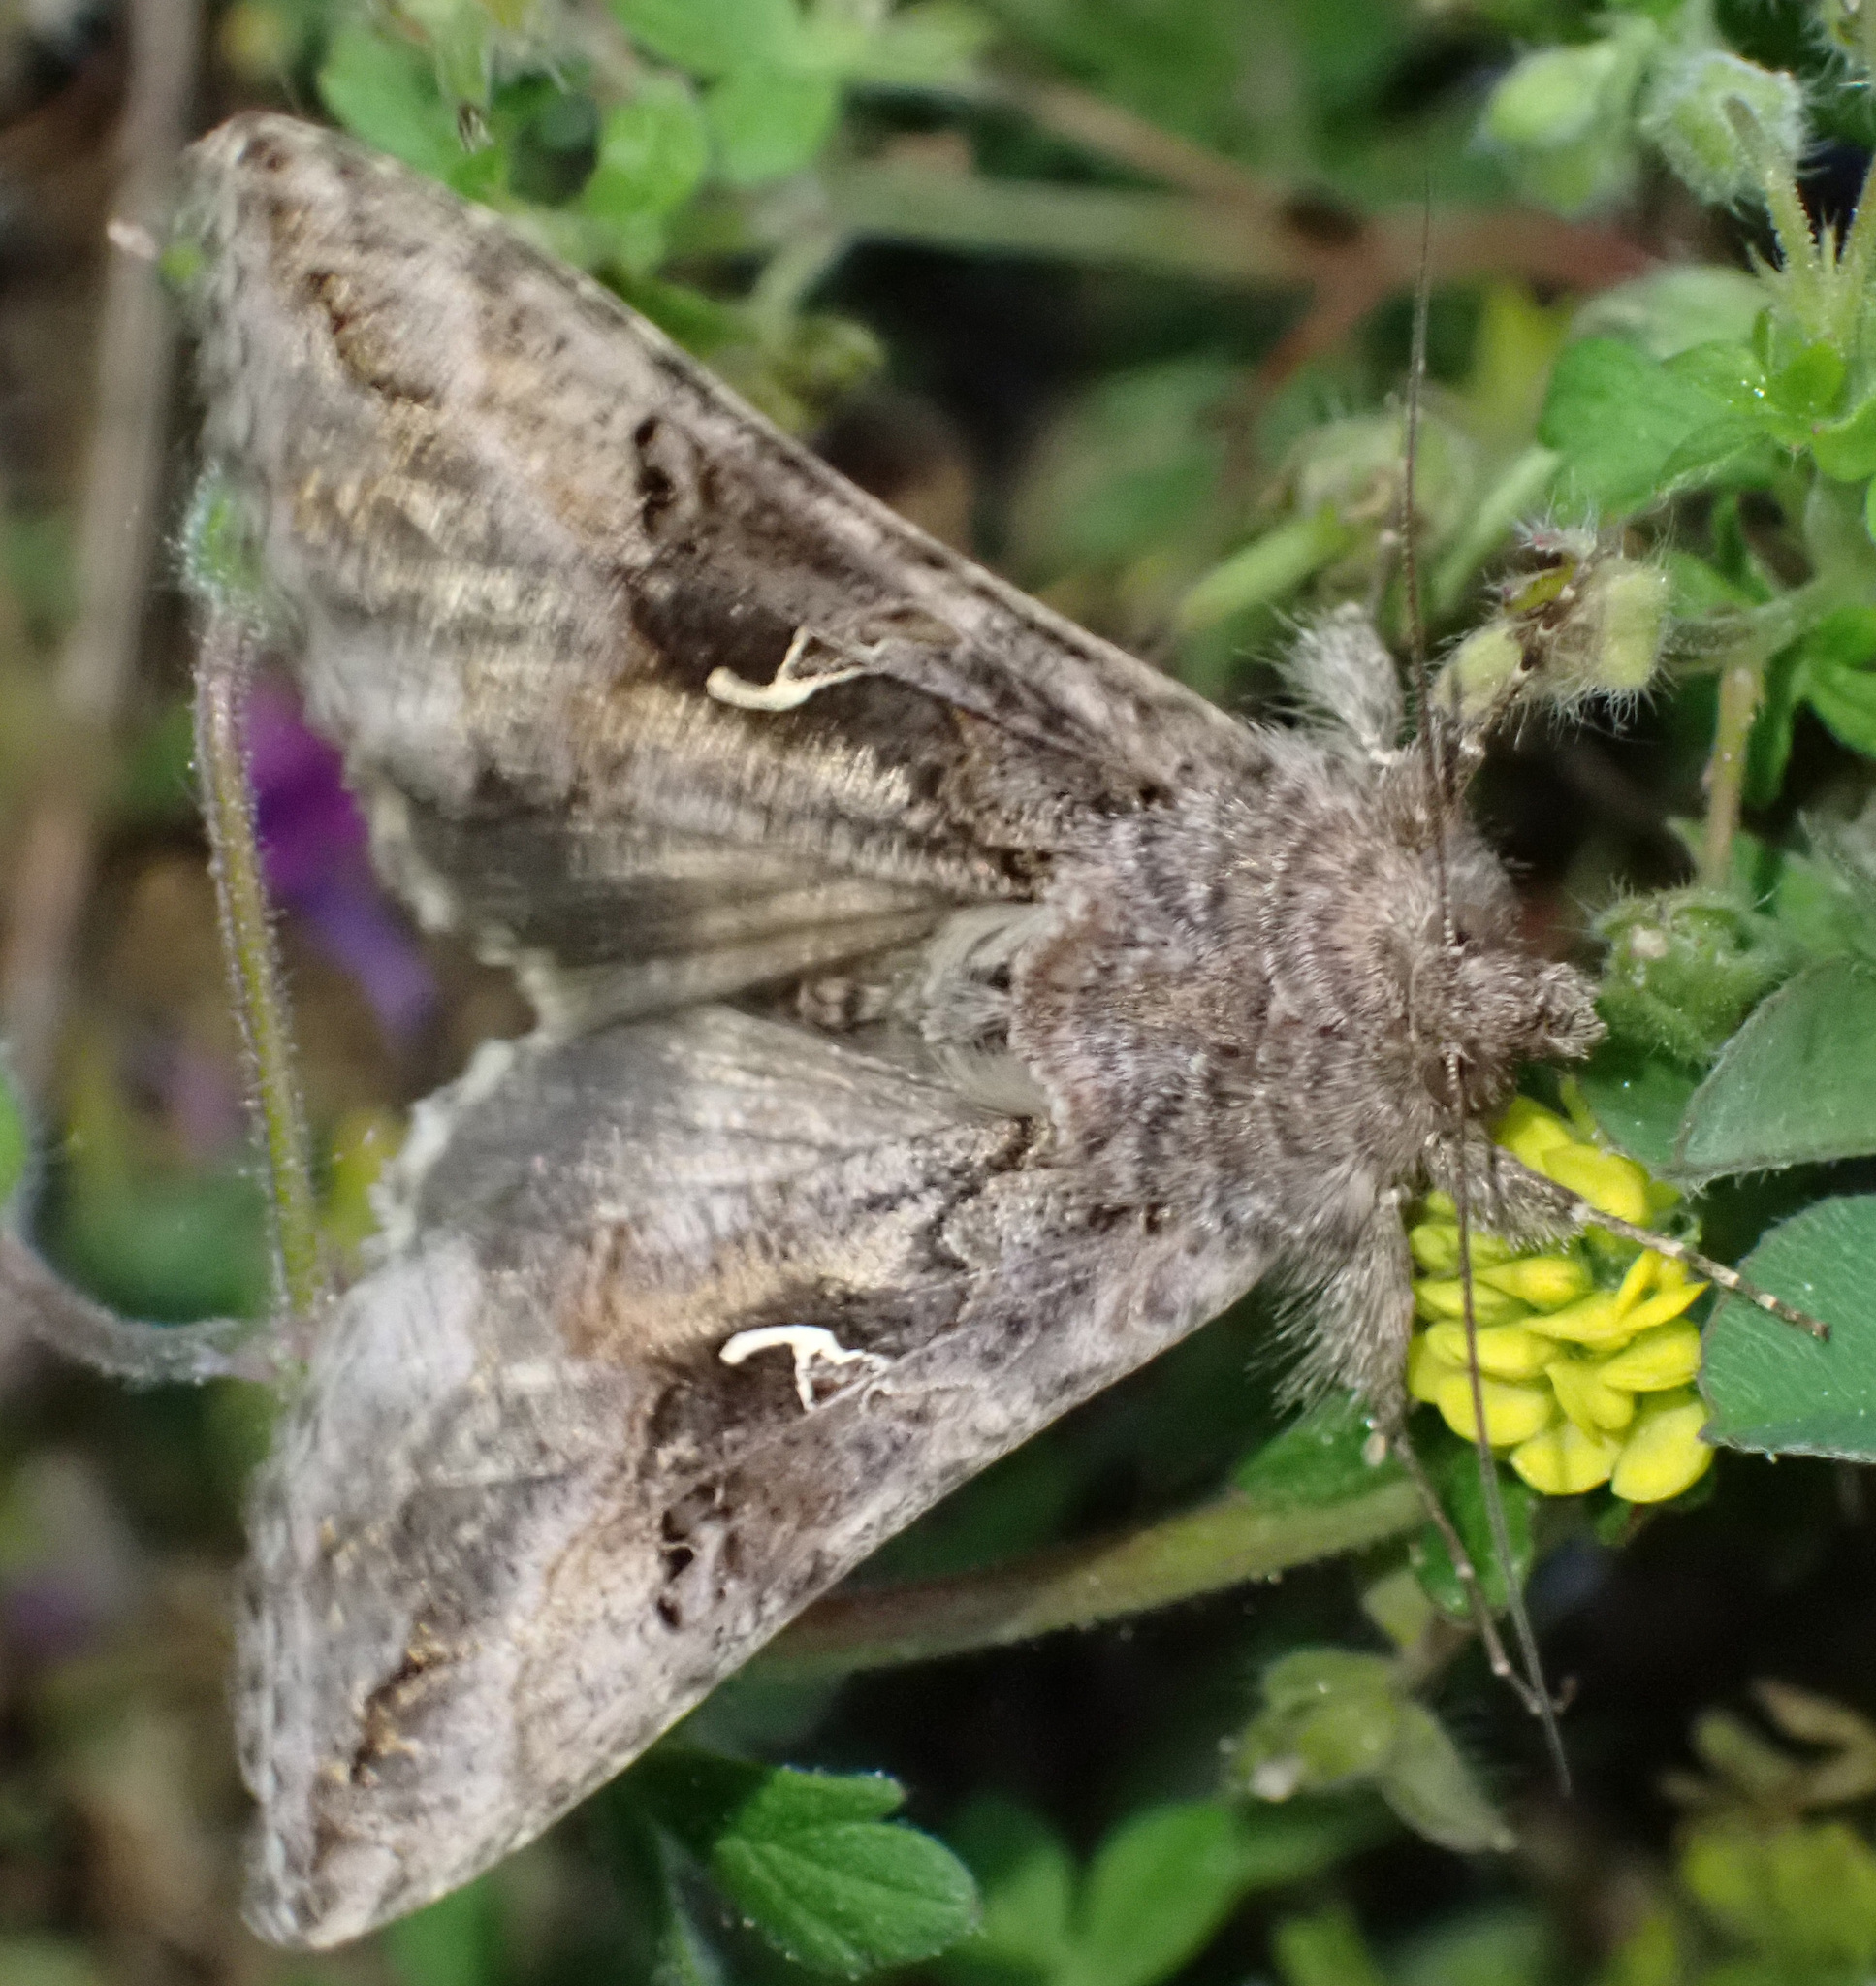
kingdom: Animalia
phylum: Arthropoda
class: Insecta
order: Lepidoptera
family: Noctuidae
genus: Autographa
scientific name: Autographa gamma
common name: Silver y
